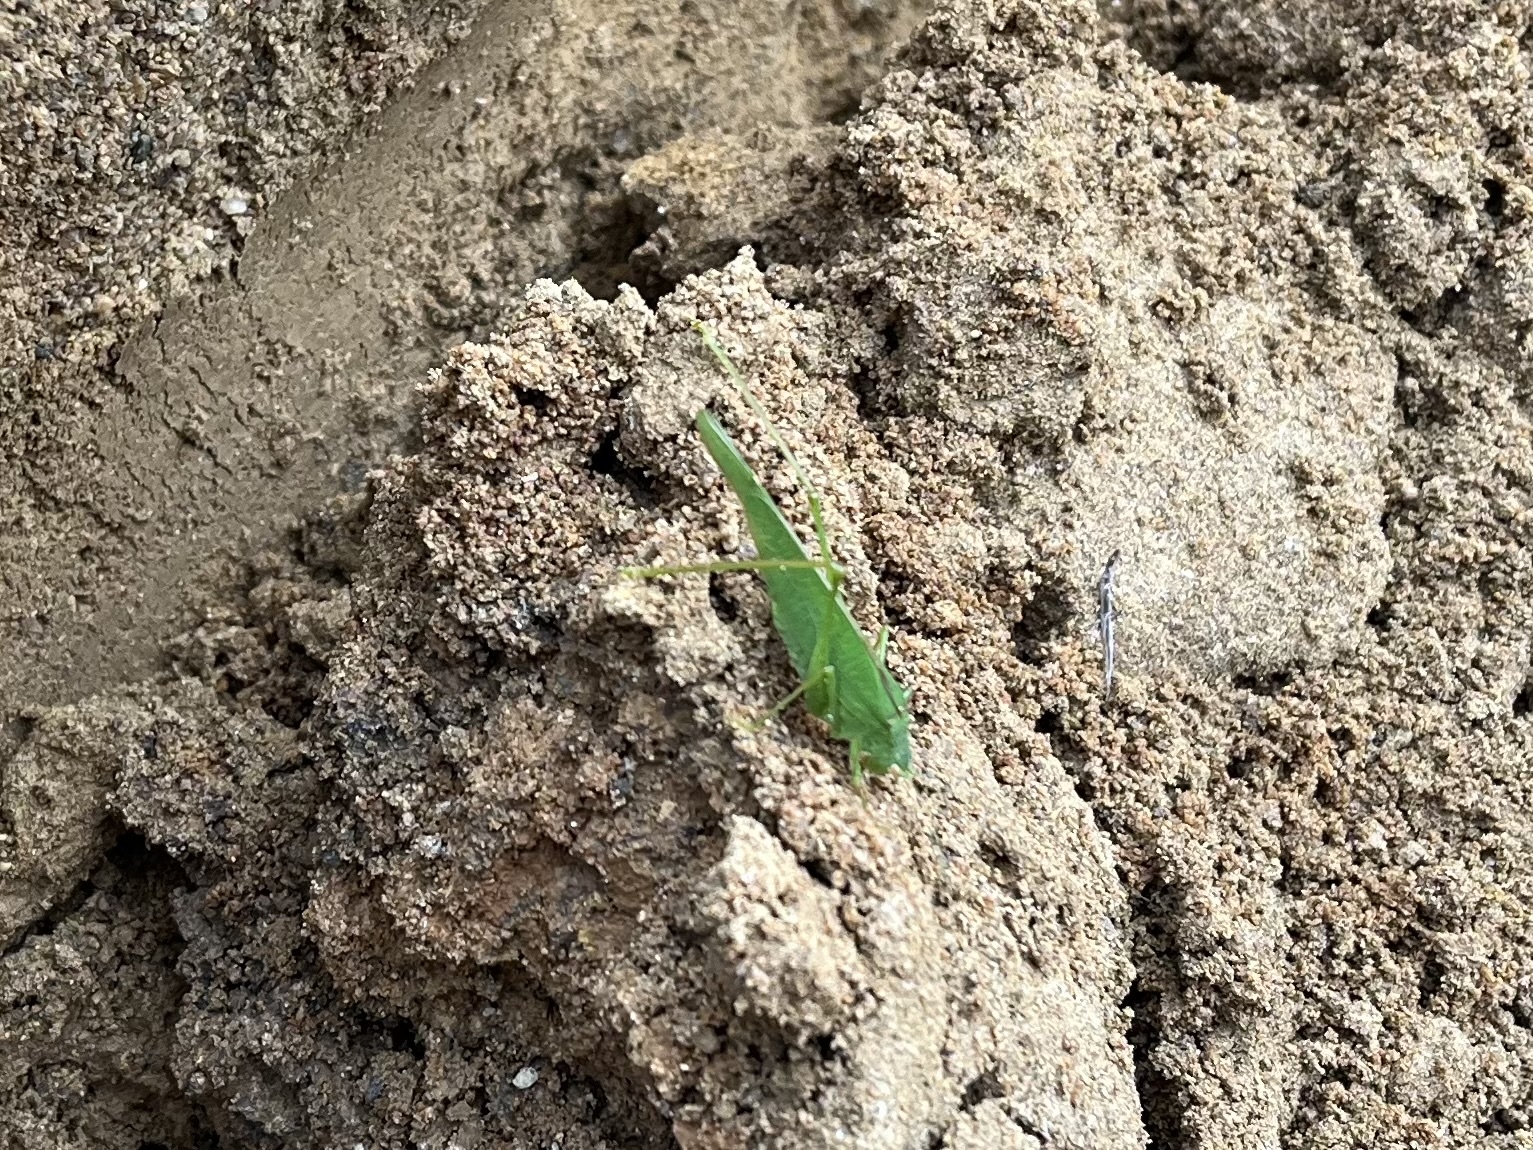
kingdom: Animalia
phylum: Arthropoda
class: Insecta
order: Orthoptera
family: Tettigoniidae
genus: Phaneroptera
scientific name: Phaneroptera nana
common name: Southern sickle bush-cricket
